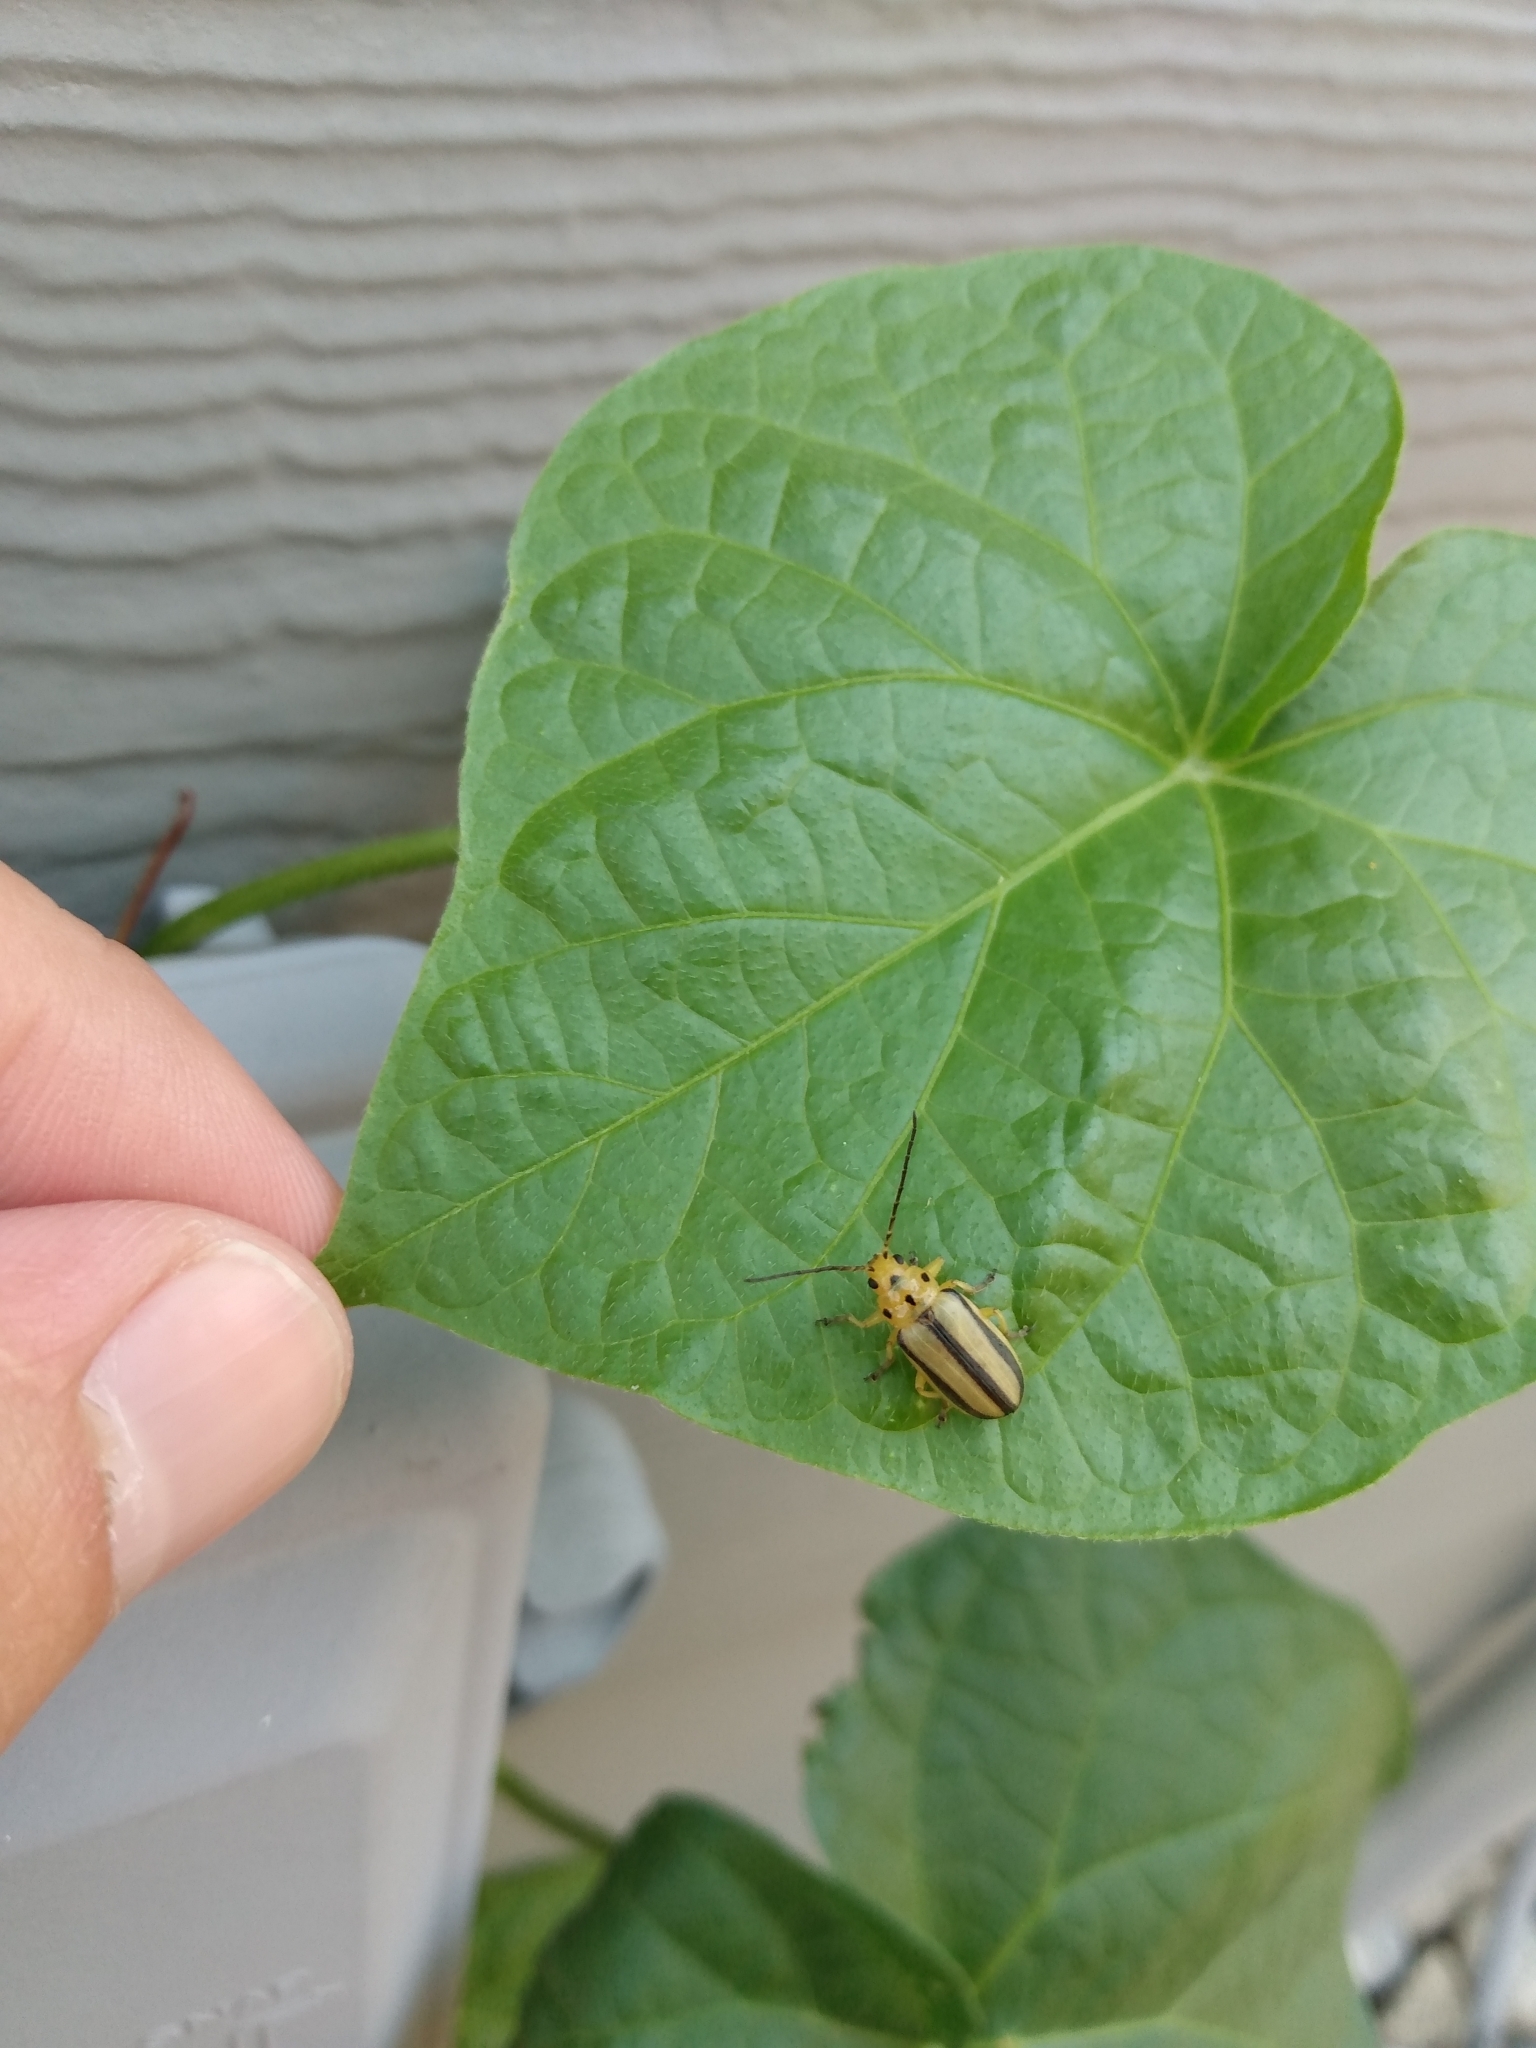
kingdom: Animalia
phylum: Arthropoda
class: Insecta
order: Coleoptera
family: Chrysomelidae
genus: Trirhabda
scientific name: Trirhabda nitidicollis
